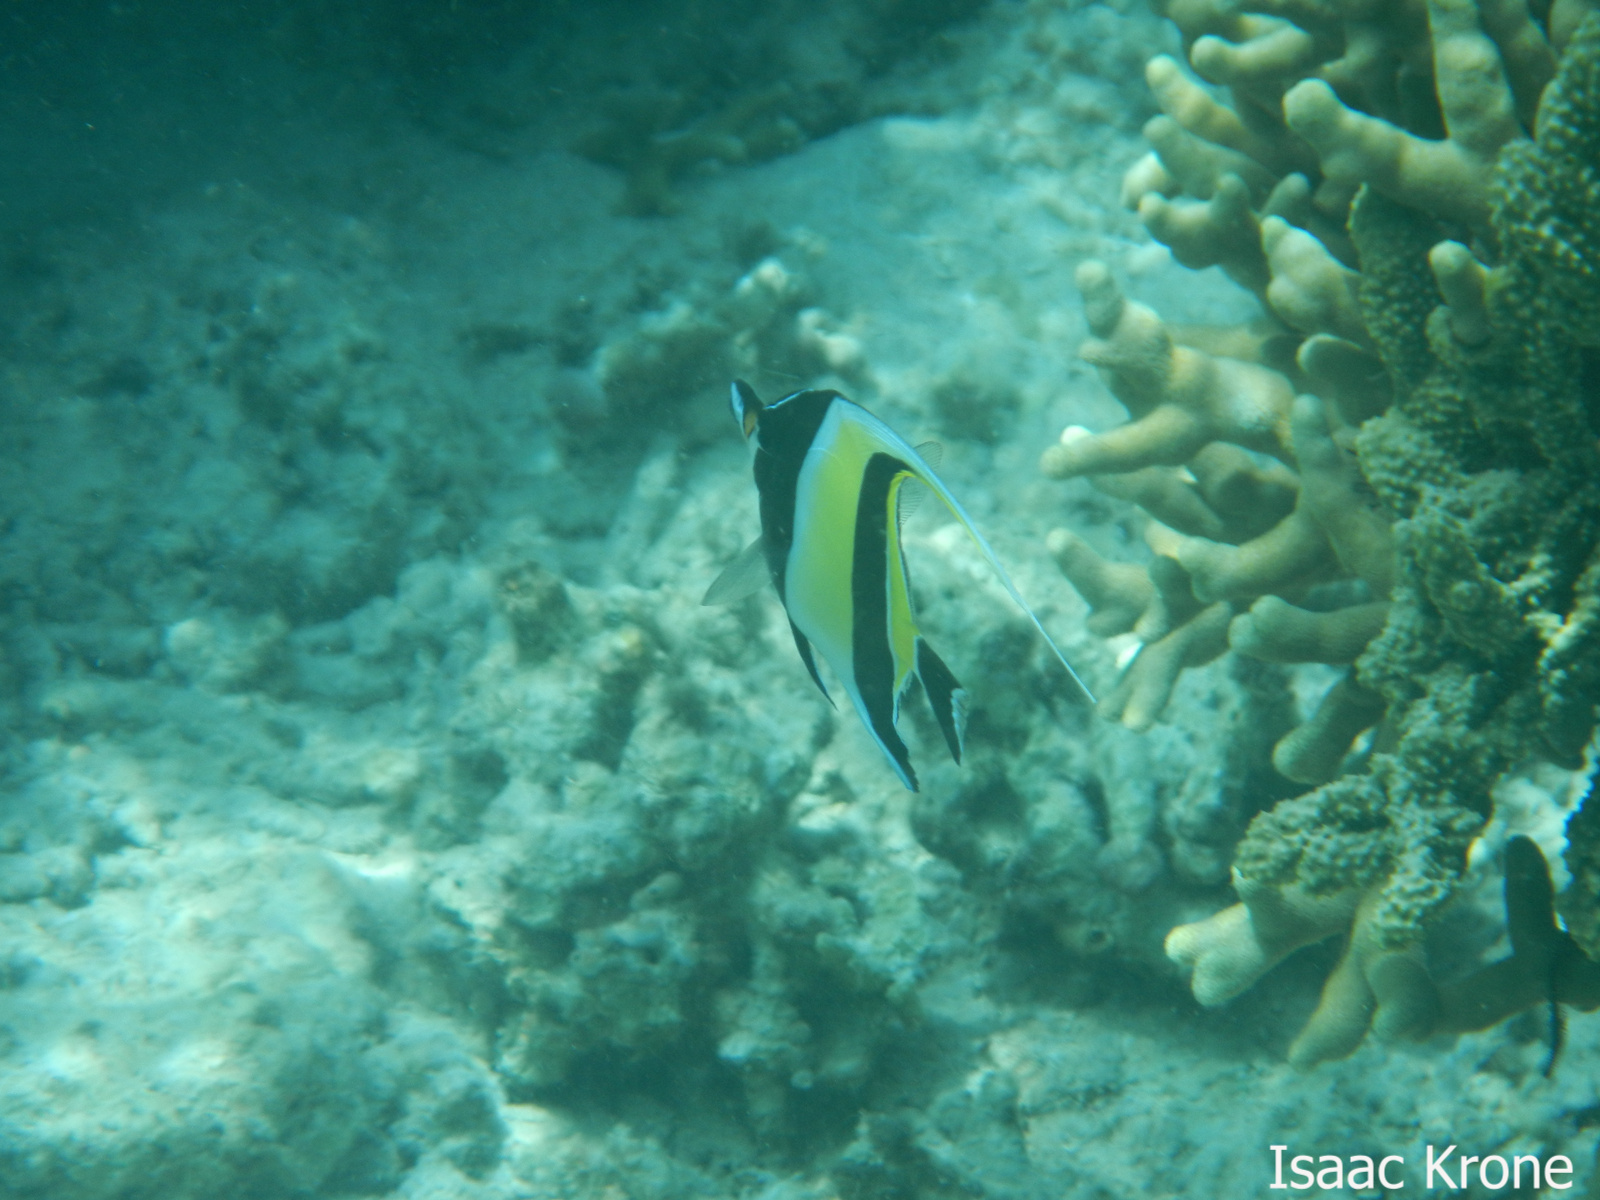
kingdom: Animalia
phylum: Chordata
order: Perciformes
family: Zanclidae
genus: Zanclus
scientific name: Zanclus cornutus
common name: Moorish idol
